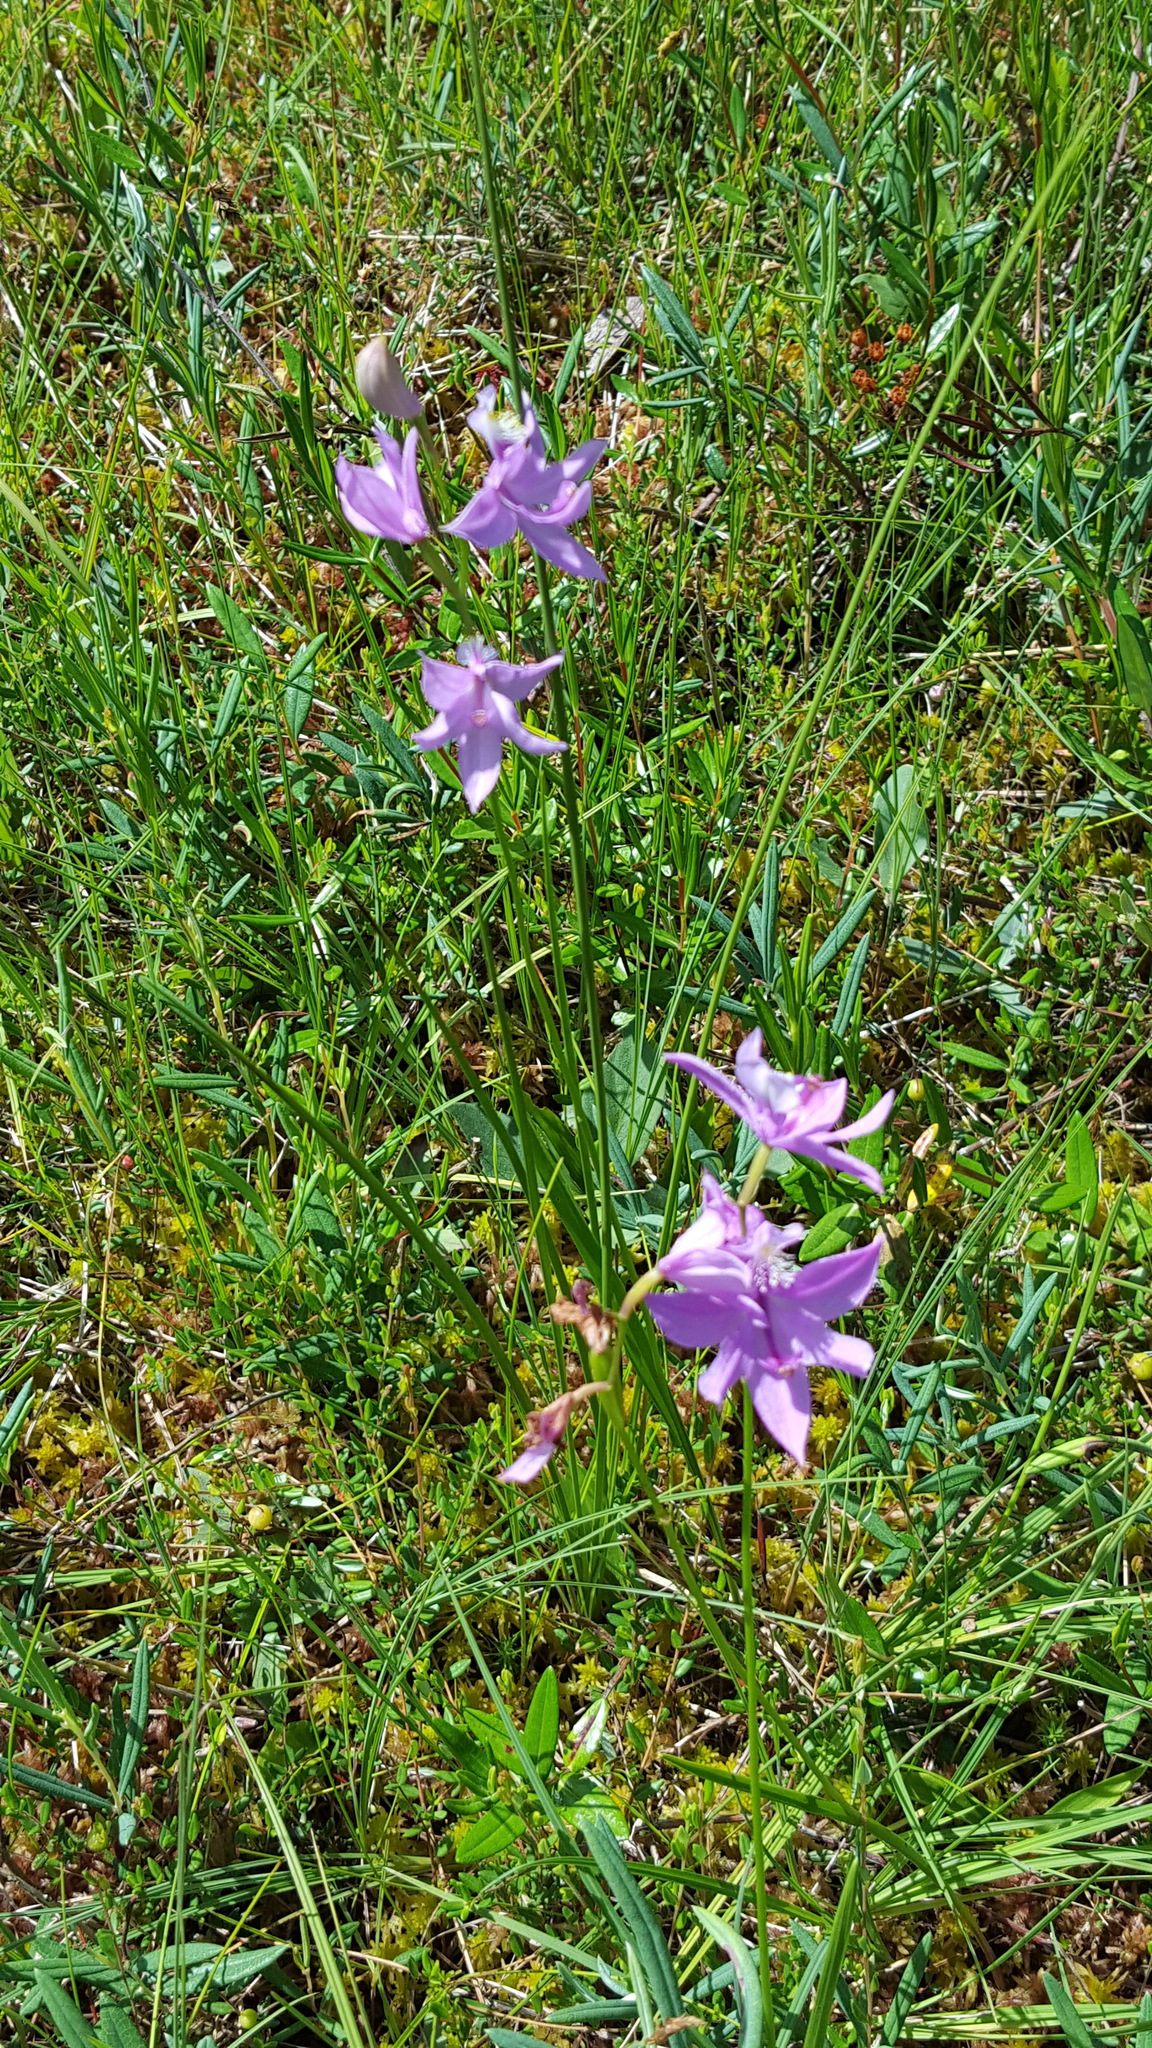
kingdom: Plantae
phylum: Tracheophyta
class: Liliopsida
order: Asparagales
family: Orchidaceae
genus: Calopogon
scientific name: Calopogon tuberosus
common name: Grass-pink
